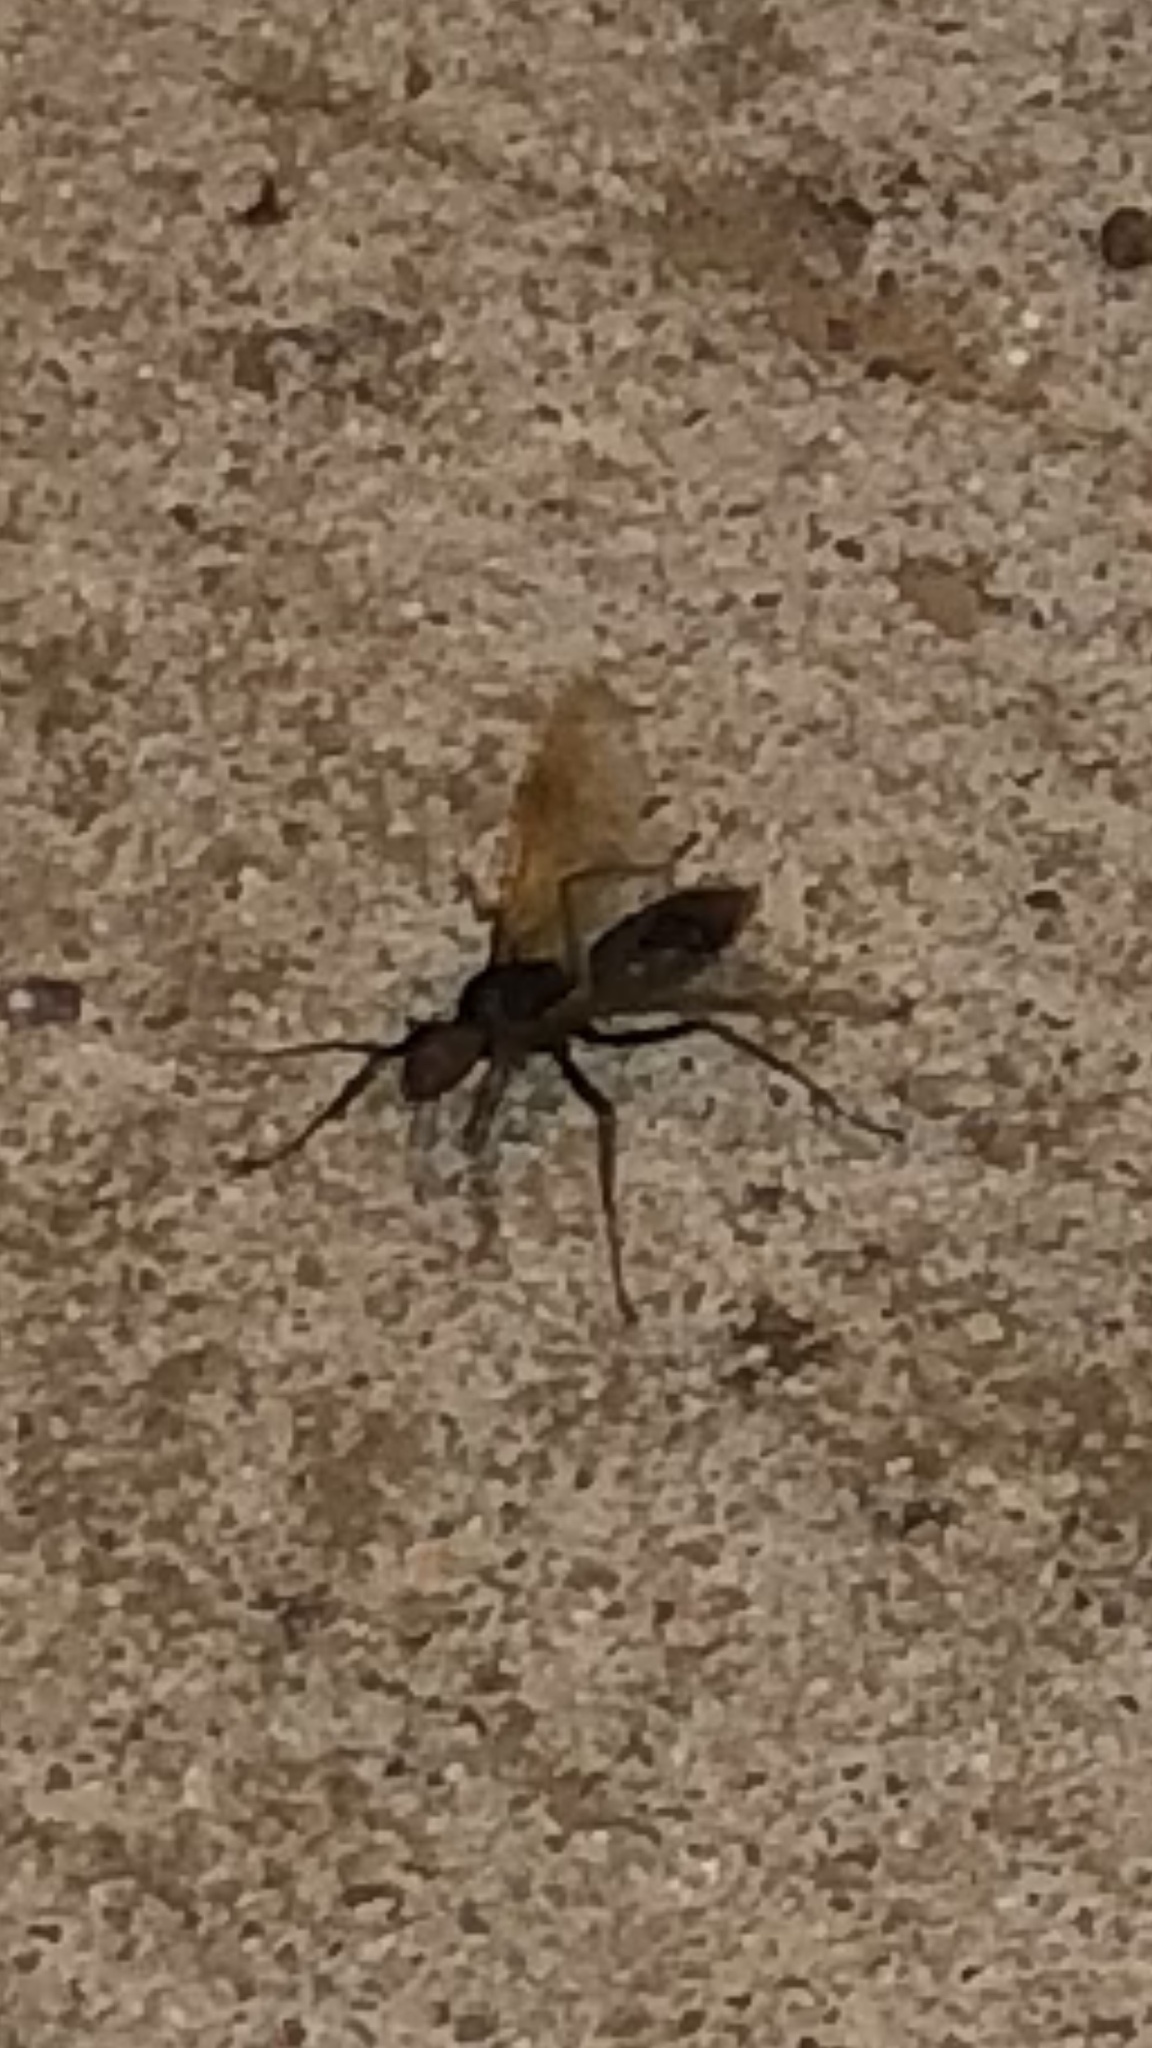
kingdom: Animalia
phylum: Arthropoda
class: Insecta
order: Hymenoptera
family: Formicidae
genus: Camponotus
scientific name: Camponotus pennsylvanicus
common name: Black carpenter ant
